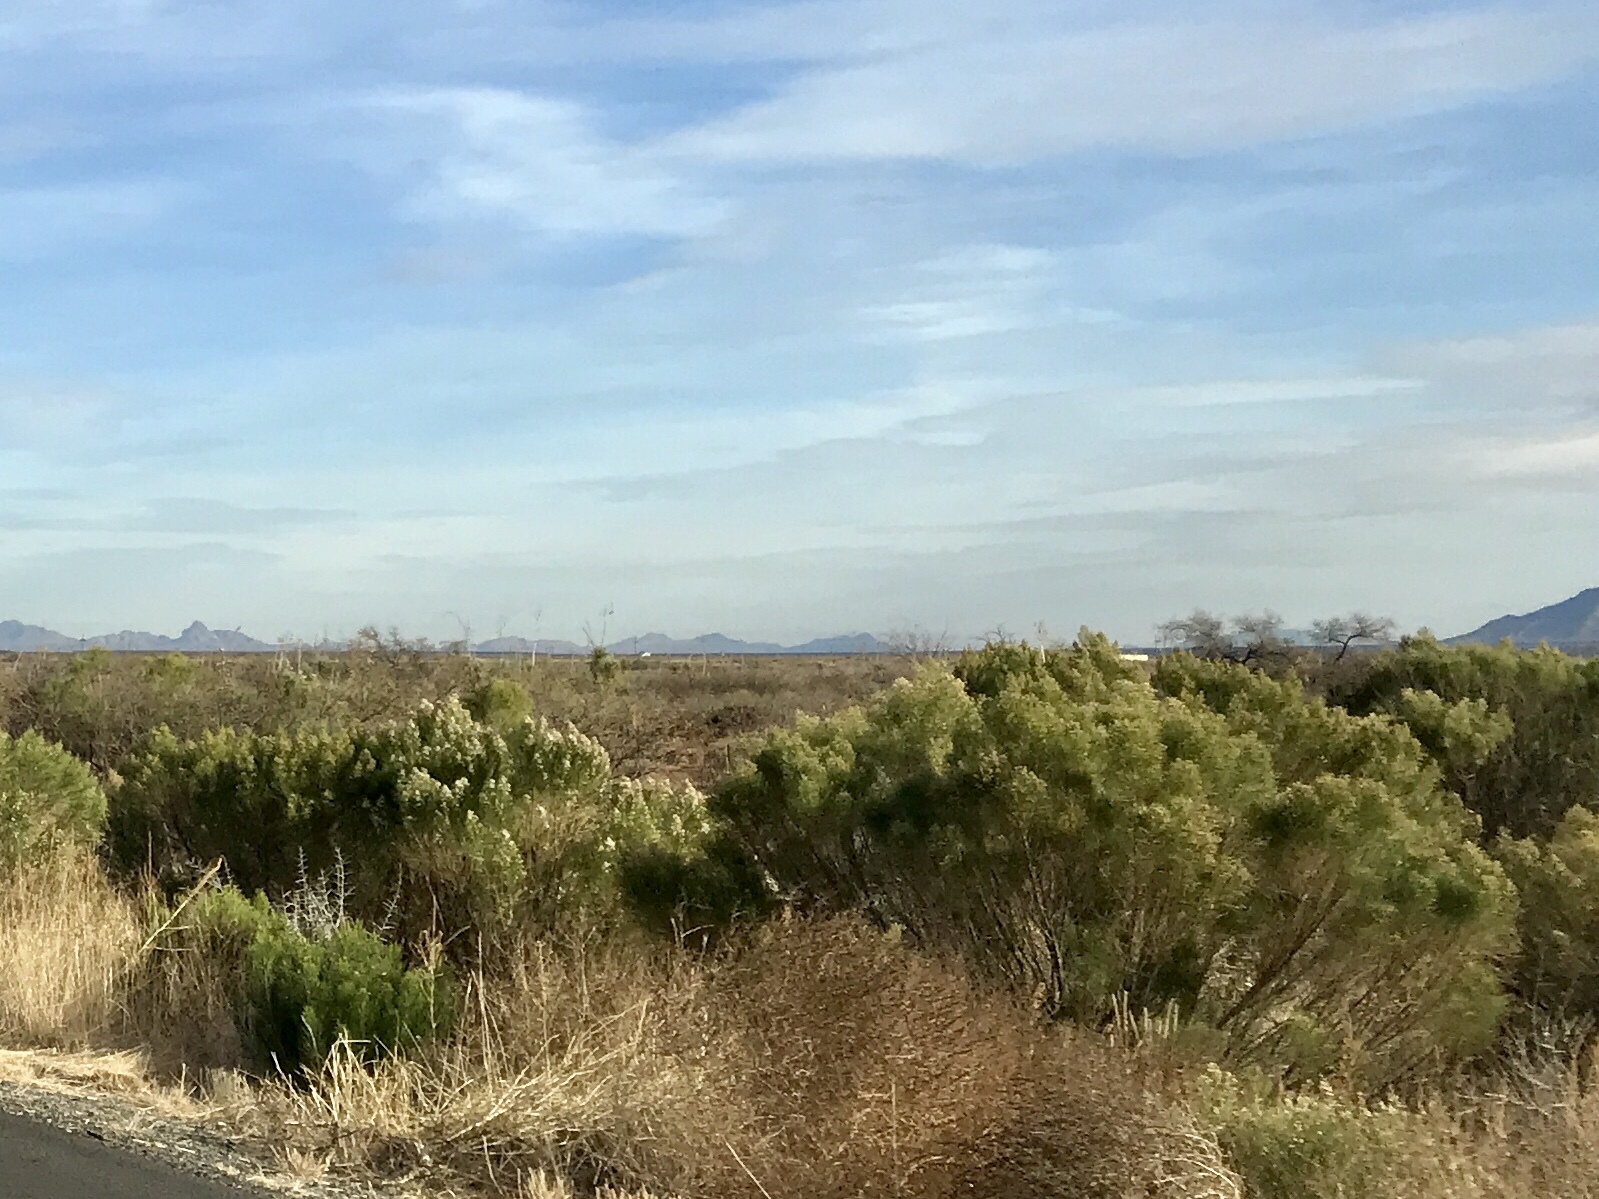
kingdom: Plantae
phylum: Tracheophyta
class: Magnoliopsida
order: Asterales
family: Asteraceae
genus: Baccharis
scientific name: Baccharis sarothroides
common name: Desert-broom
